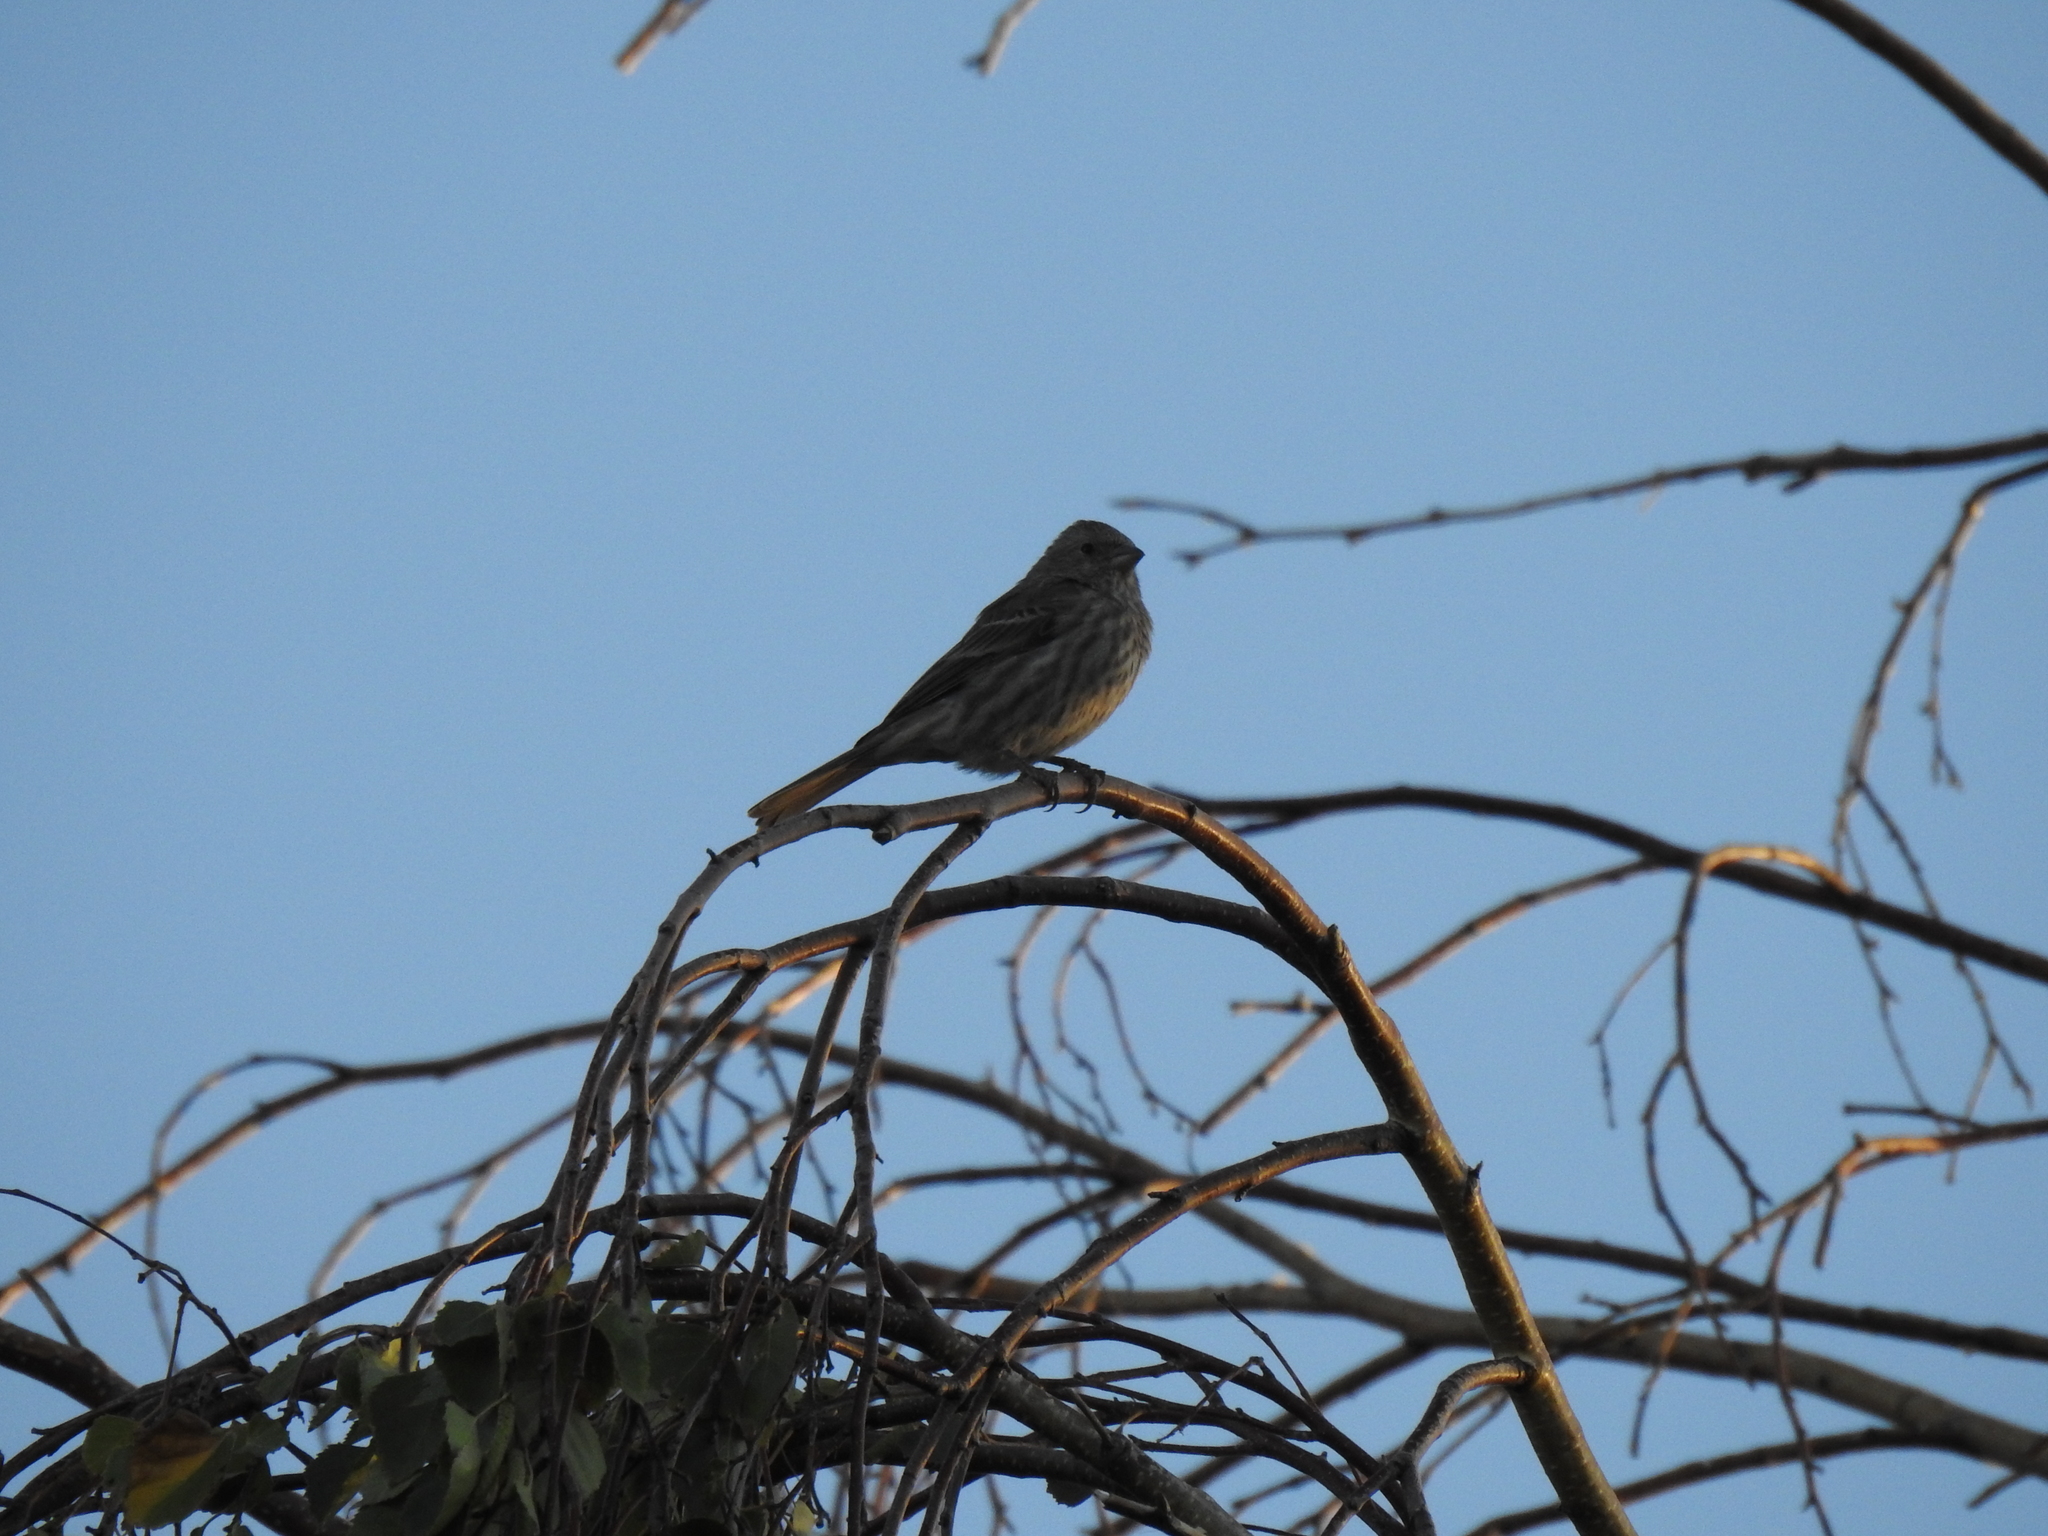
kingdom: Animalia
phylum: Chordata
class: Aves
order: Passeriformes
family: Fringillidae
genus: Haemorhous
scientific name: Haemorhous mexicanus
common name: House finch
